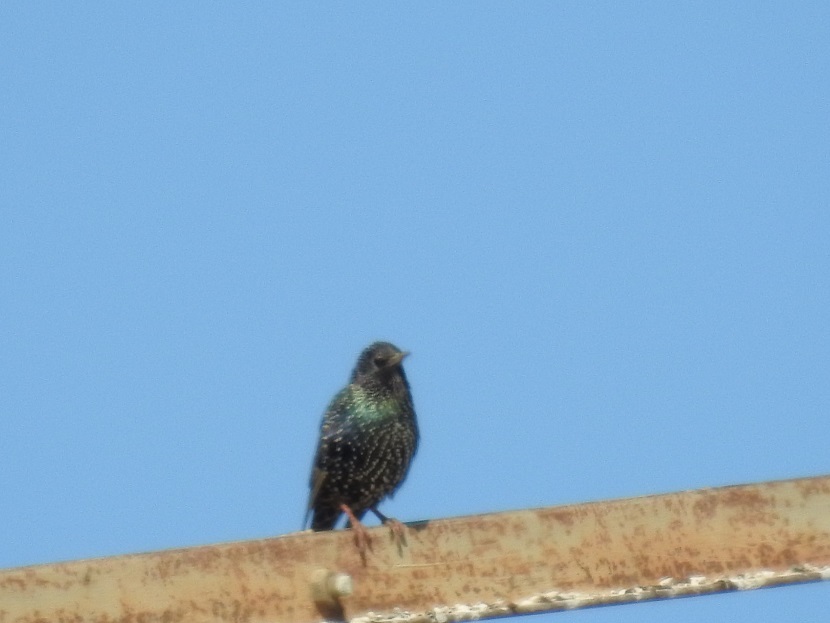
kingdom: Animalia
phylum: Chordata
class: Aves
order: Passeriformes
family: Sturnidae
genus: Sturnus
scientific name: Sturnus vulgaris
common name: Common starling
